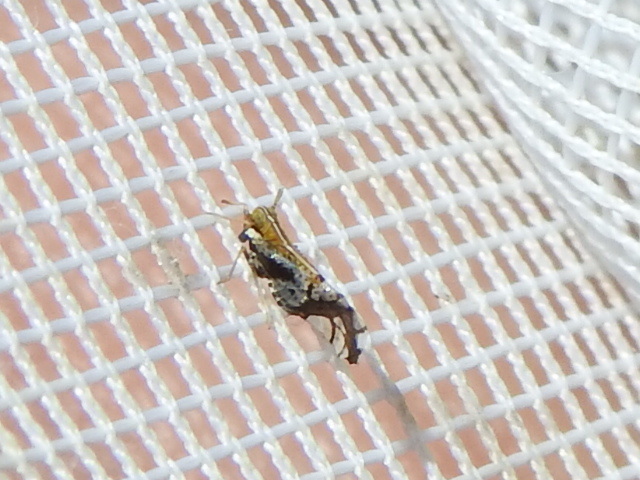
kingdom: Animalia
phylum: Arthropoda
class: Insecta
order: Hemiptera
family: Delphacidae
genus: Liburniella
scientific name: Liburniella ornata
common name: Ornate planthopper
